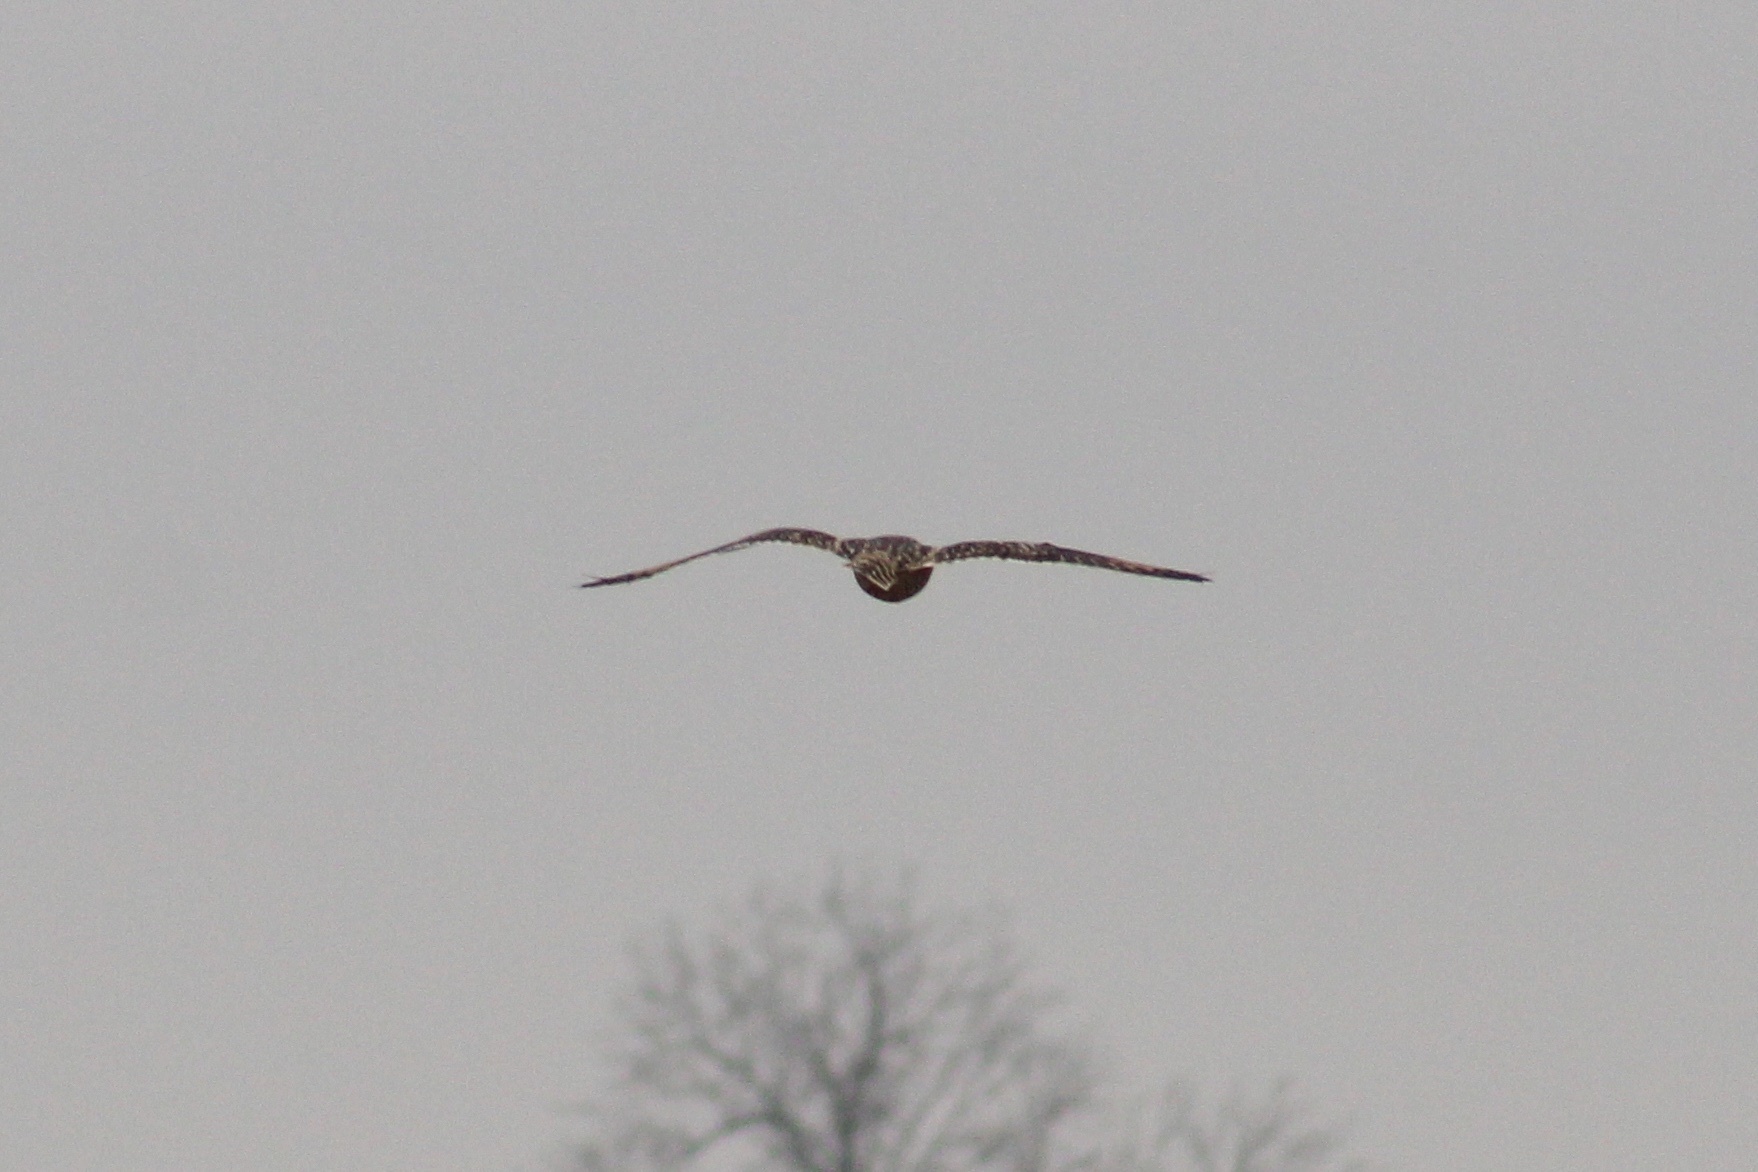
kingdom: Animalia
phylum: Chordata
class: Aves
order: Strigiformes
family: Strigidae
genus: Asio
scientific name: Asio flammeus
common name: Short-eared owl
